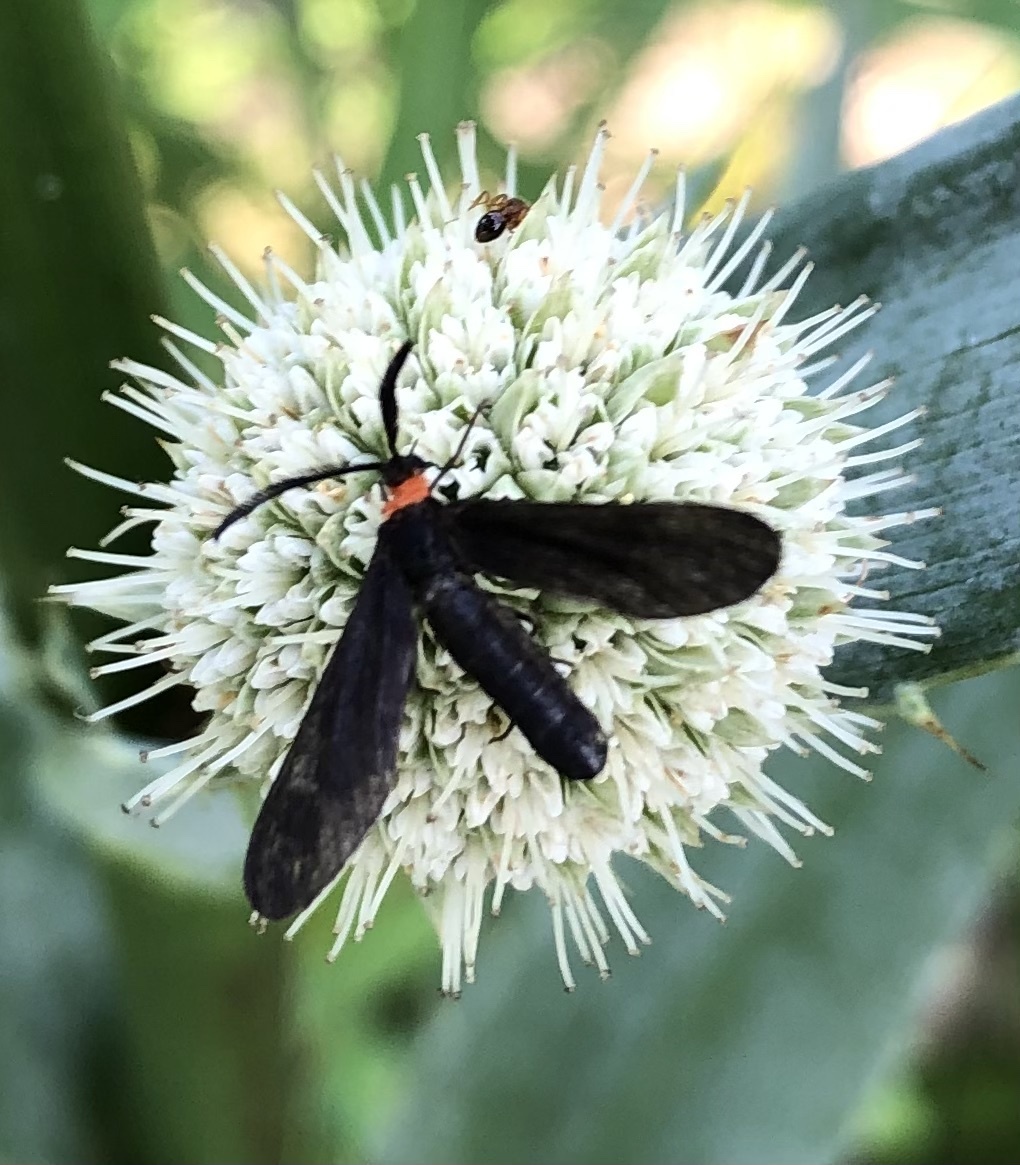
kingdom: Animalia
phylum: Arthropoda
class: Insecta
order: Lepidoptera
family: Zygaenidae
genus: Harrisina
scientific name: Harrisina americana
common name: Grapeleaf skeletonizer moth
